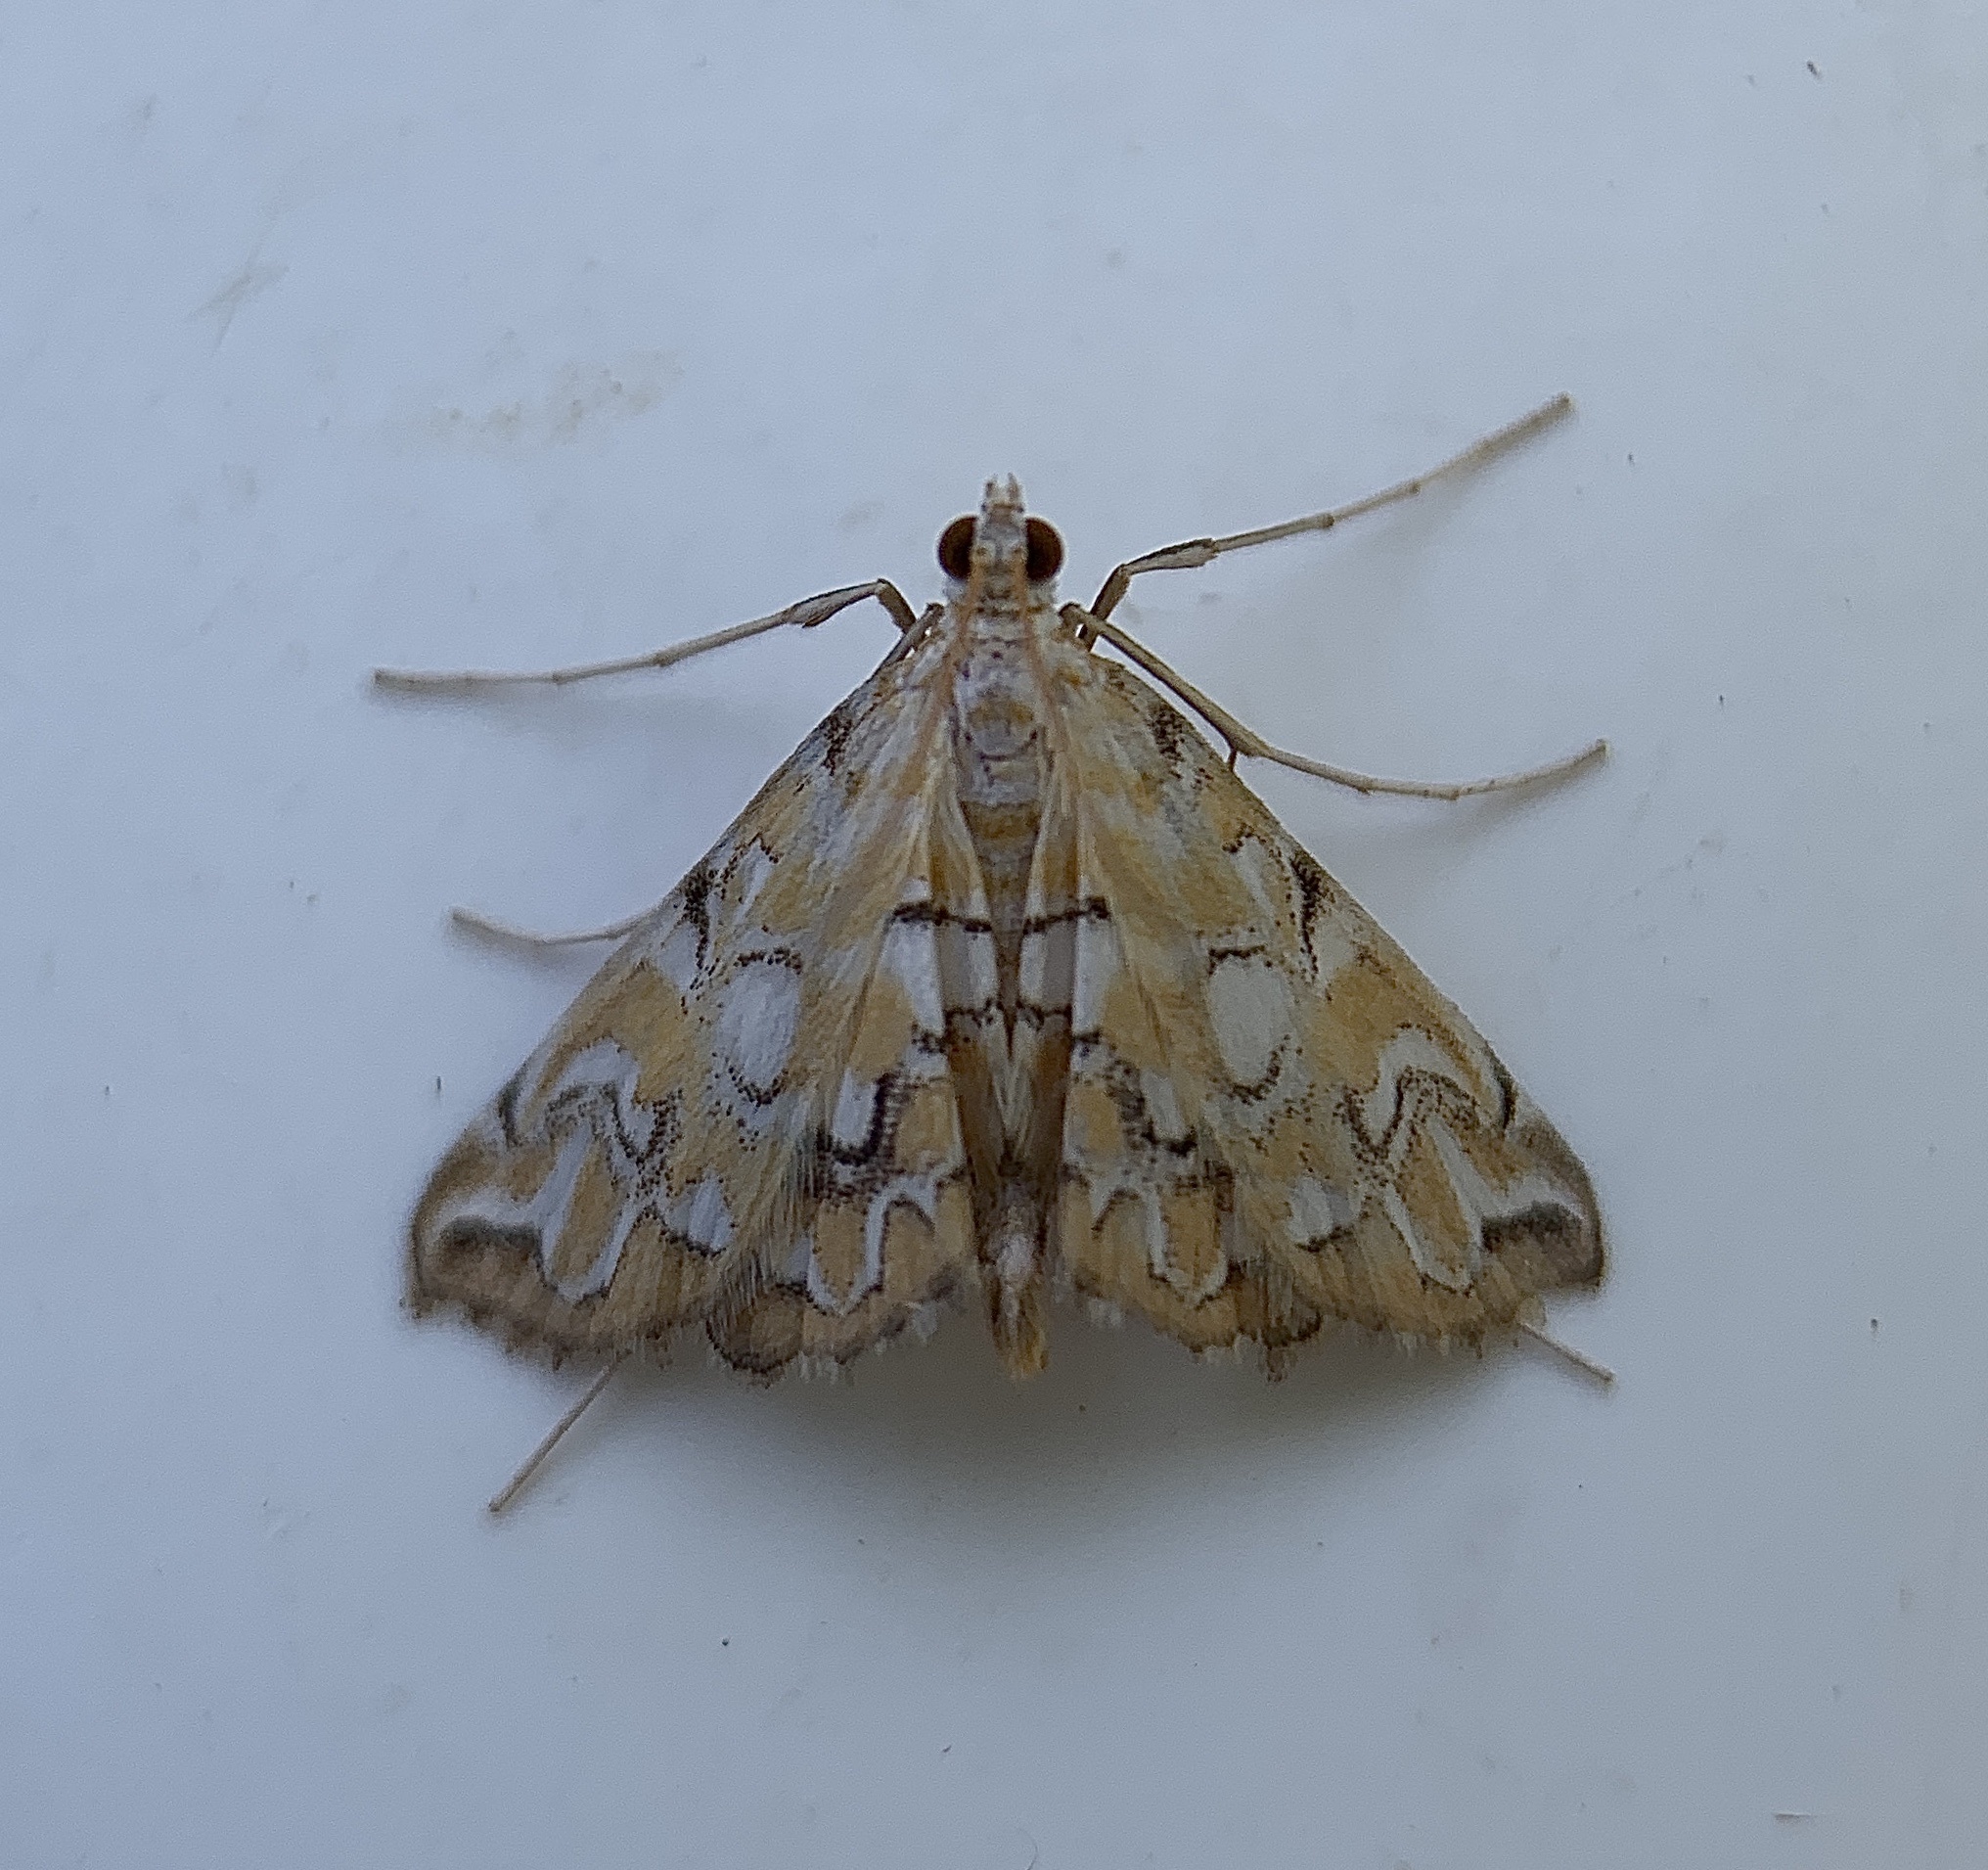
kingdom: Animalia
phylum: Arthropoda
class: Insecta
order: Lepidoptera
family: Crambidae
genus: Elophila
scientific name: Elophila icciusalis
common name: Pondside pyralid moth
